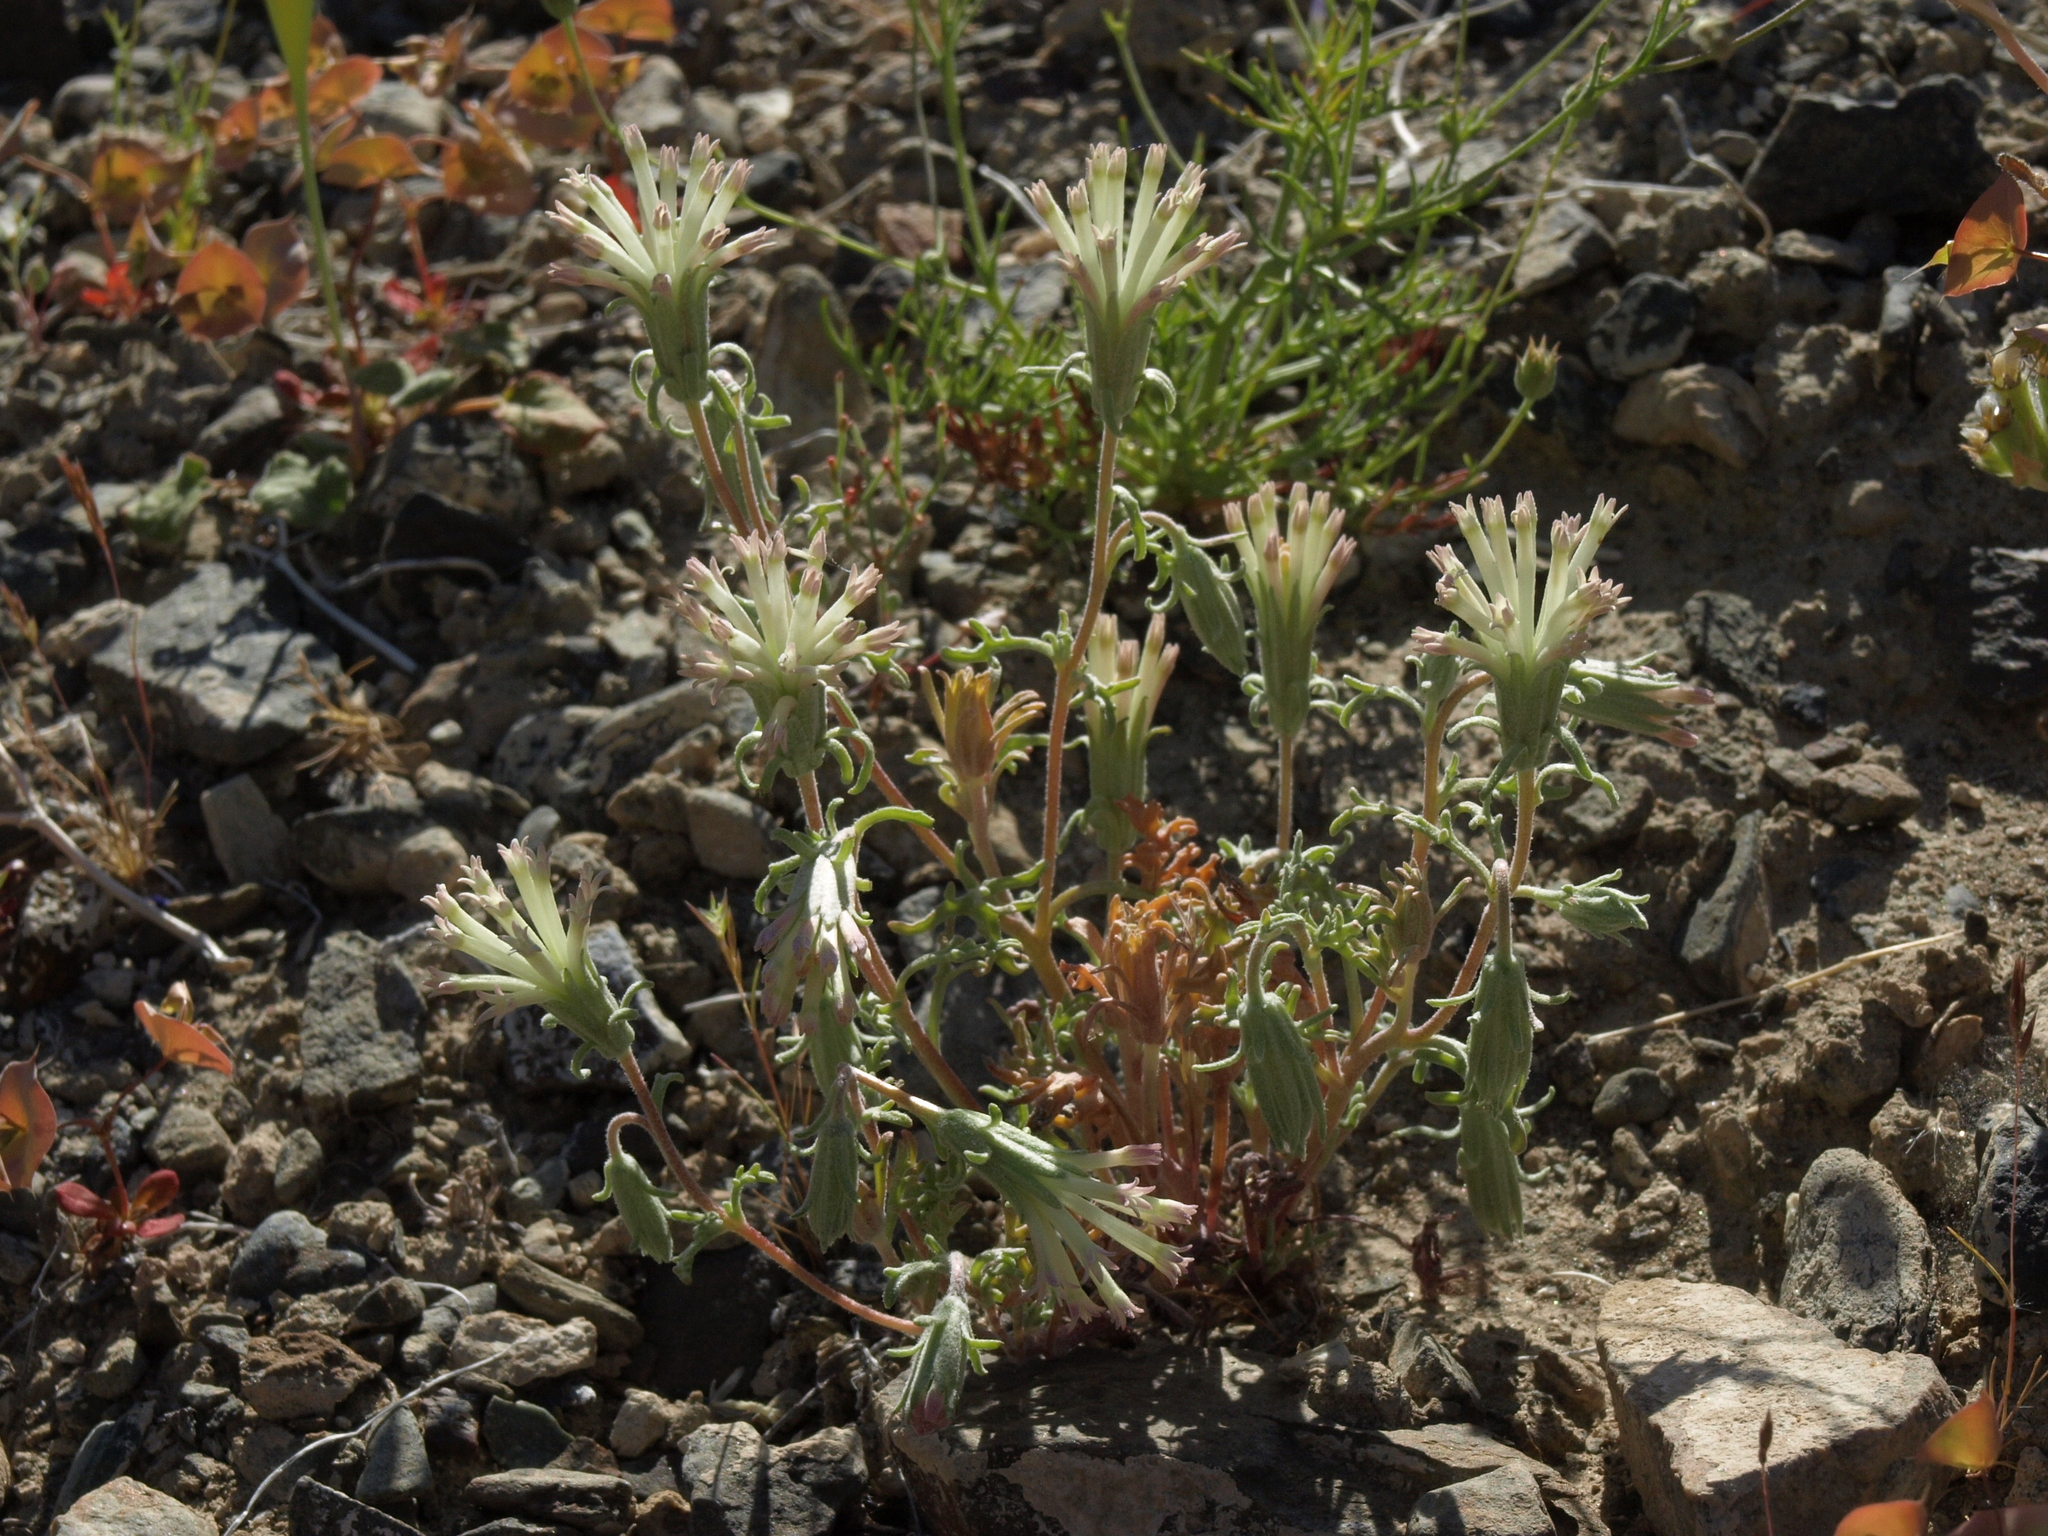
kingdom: Plantae
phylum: Tracheophyta
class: Magnoliopsida
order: Asterales
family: Asteraceae
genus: Chaenactis
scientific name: Chaenactis macrantha
